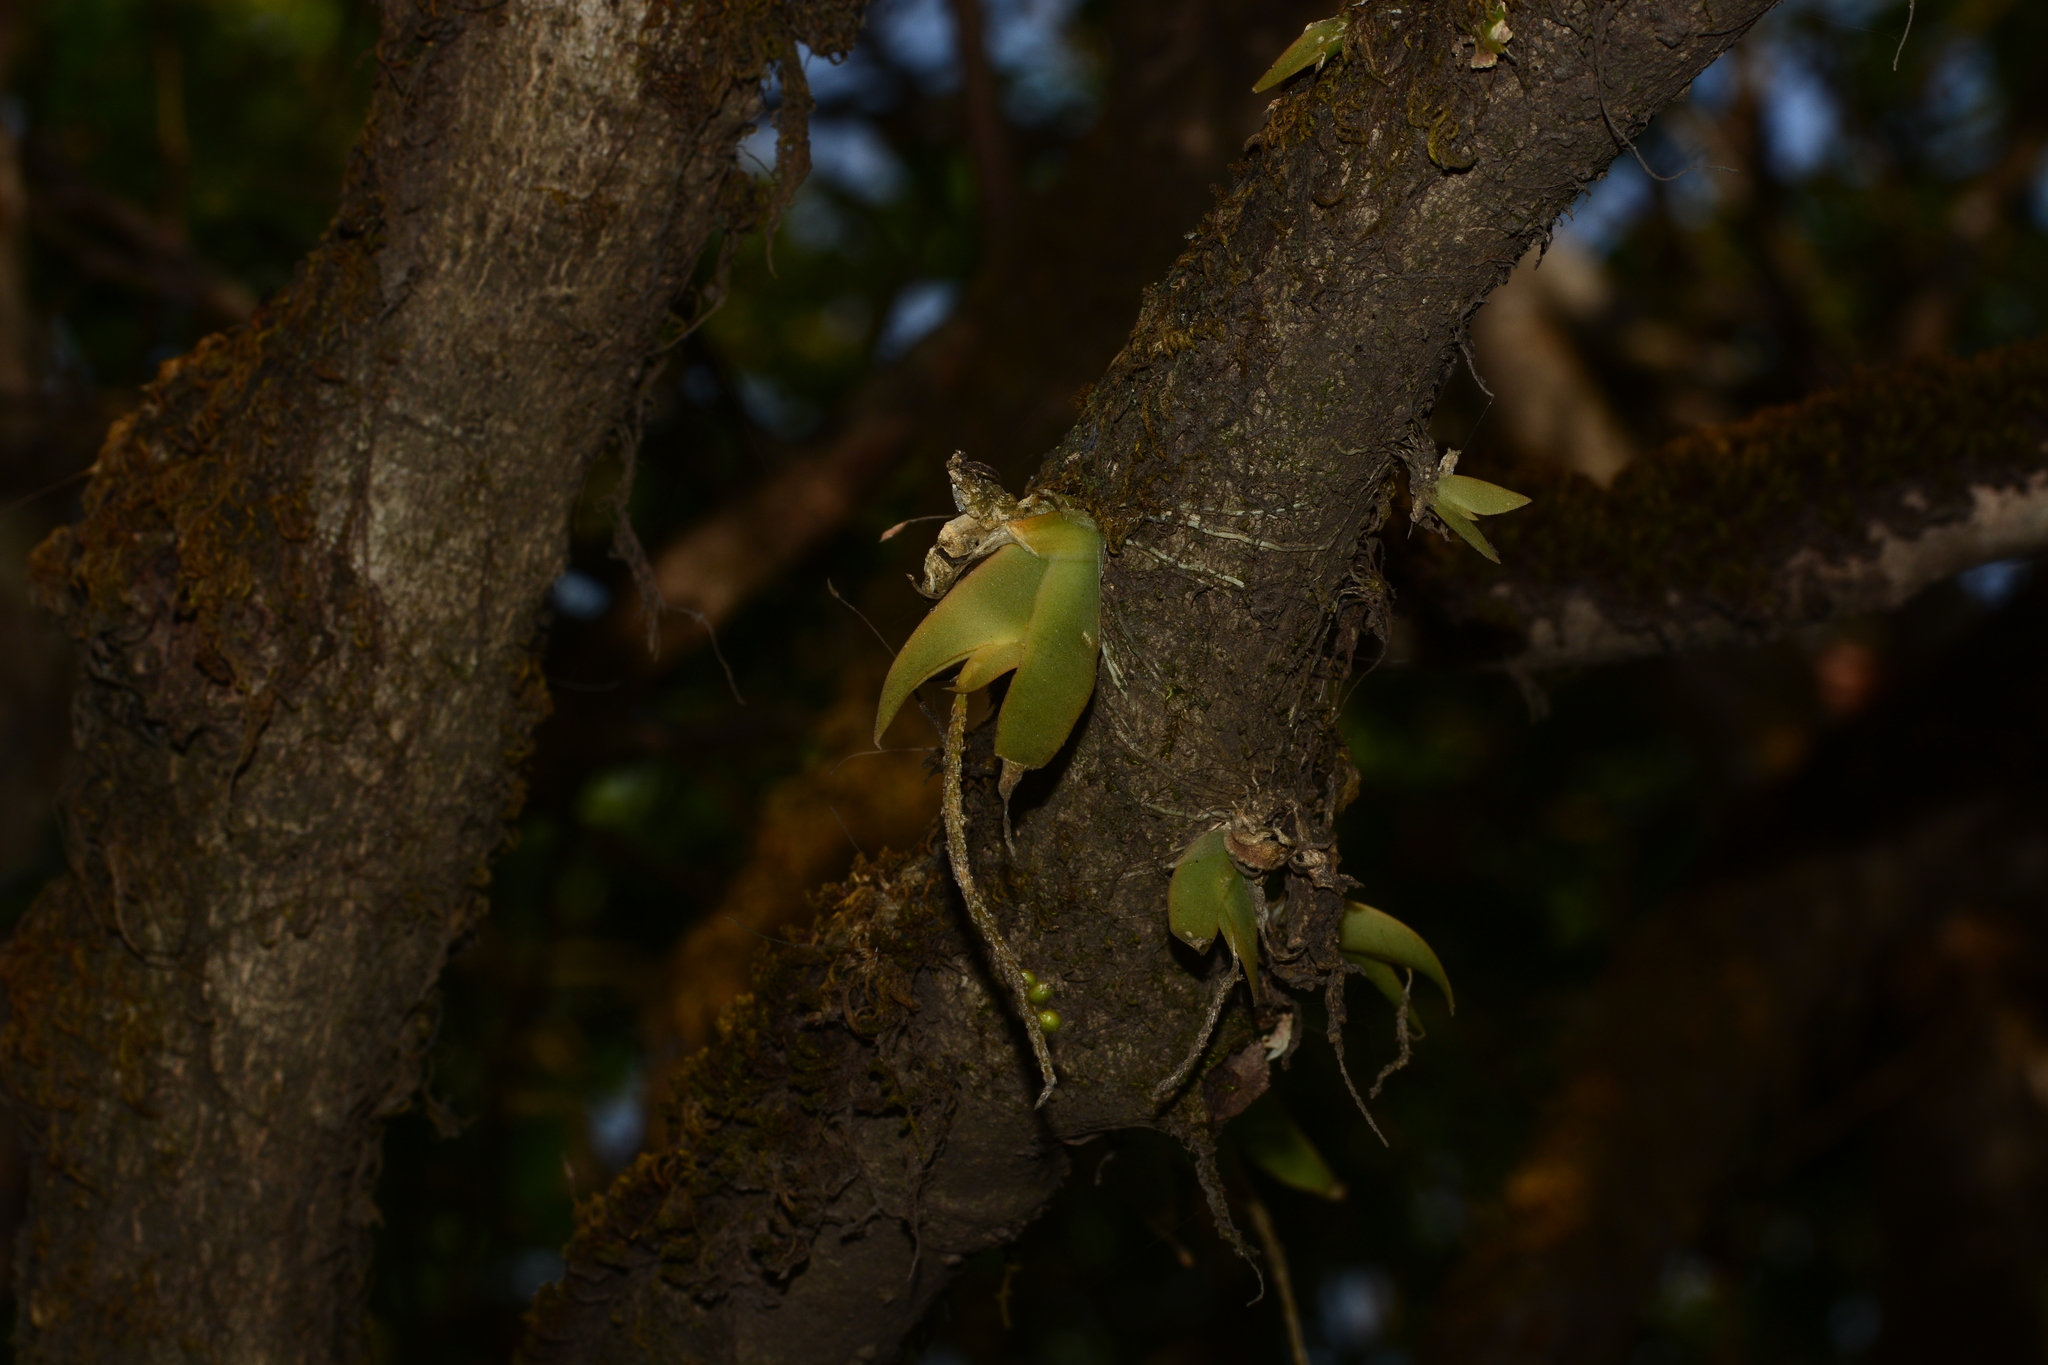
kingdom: Plantae
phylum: Tracheophyta
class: Liliopsida
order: Asparagales
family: Orchidaceae
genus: Oberonia
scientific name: Oberonia falconeri
